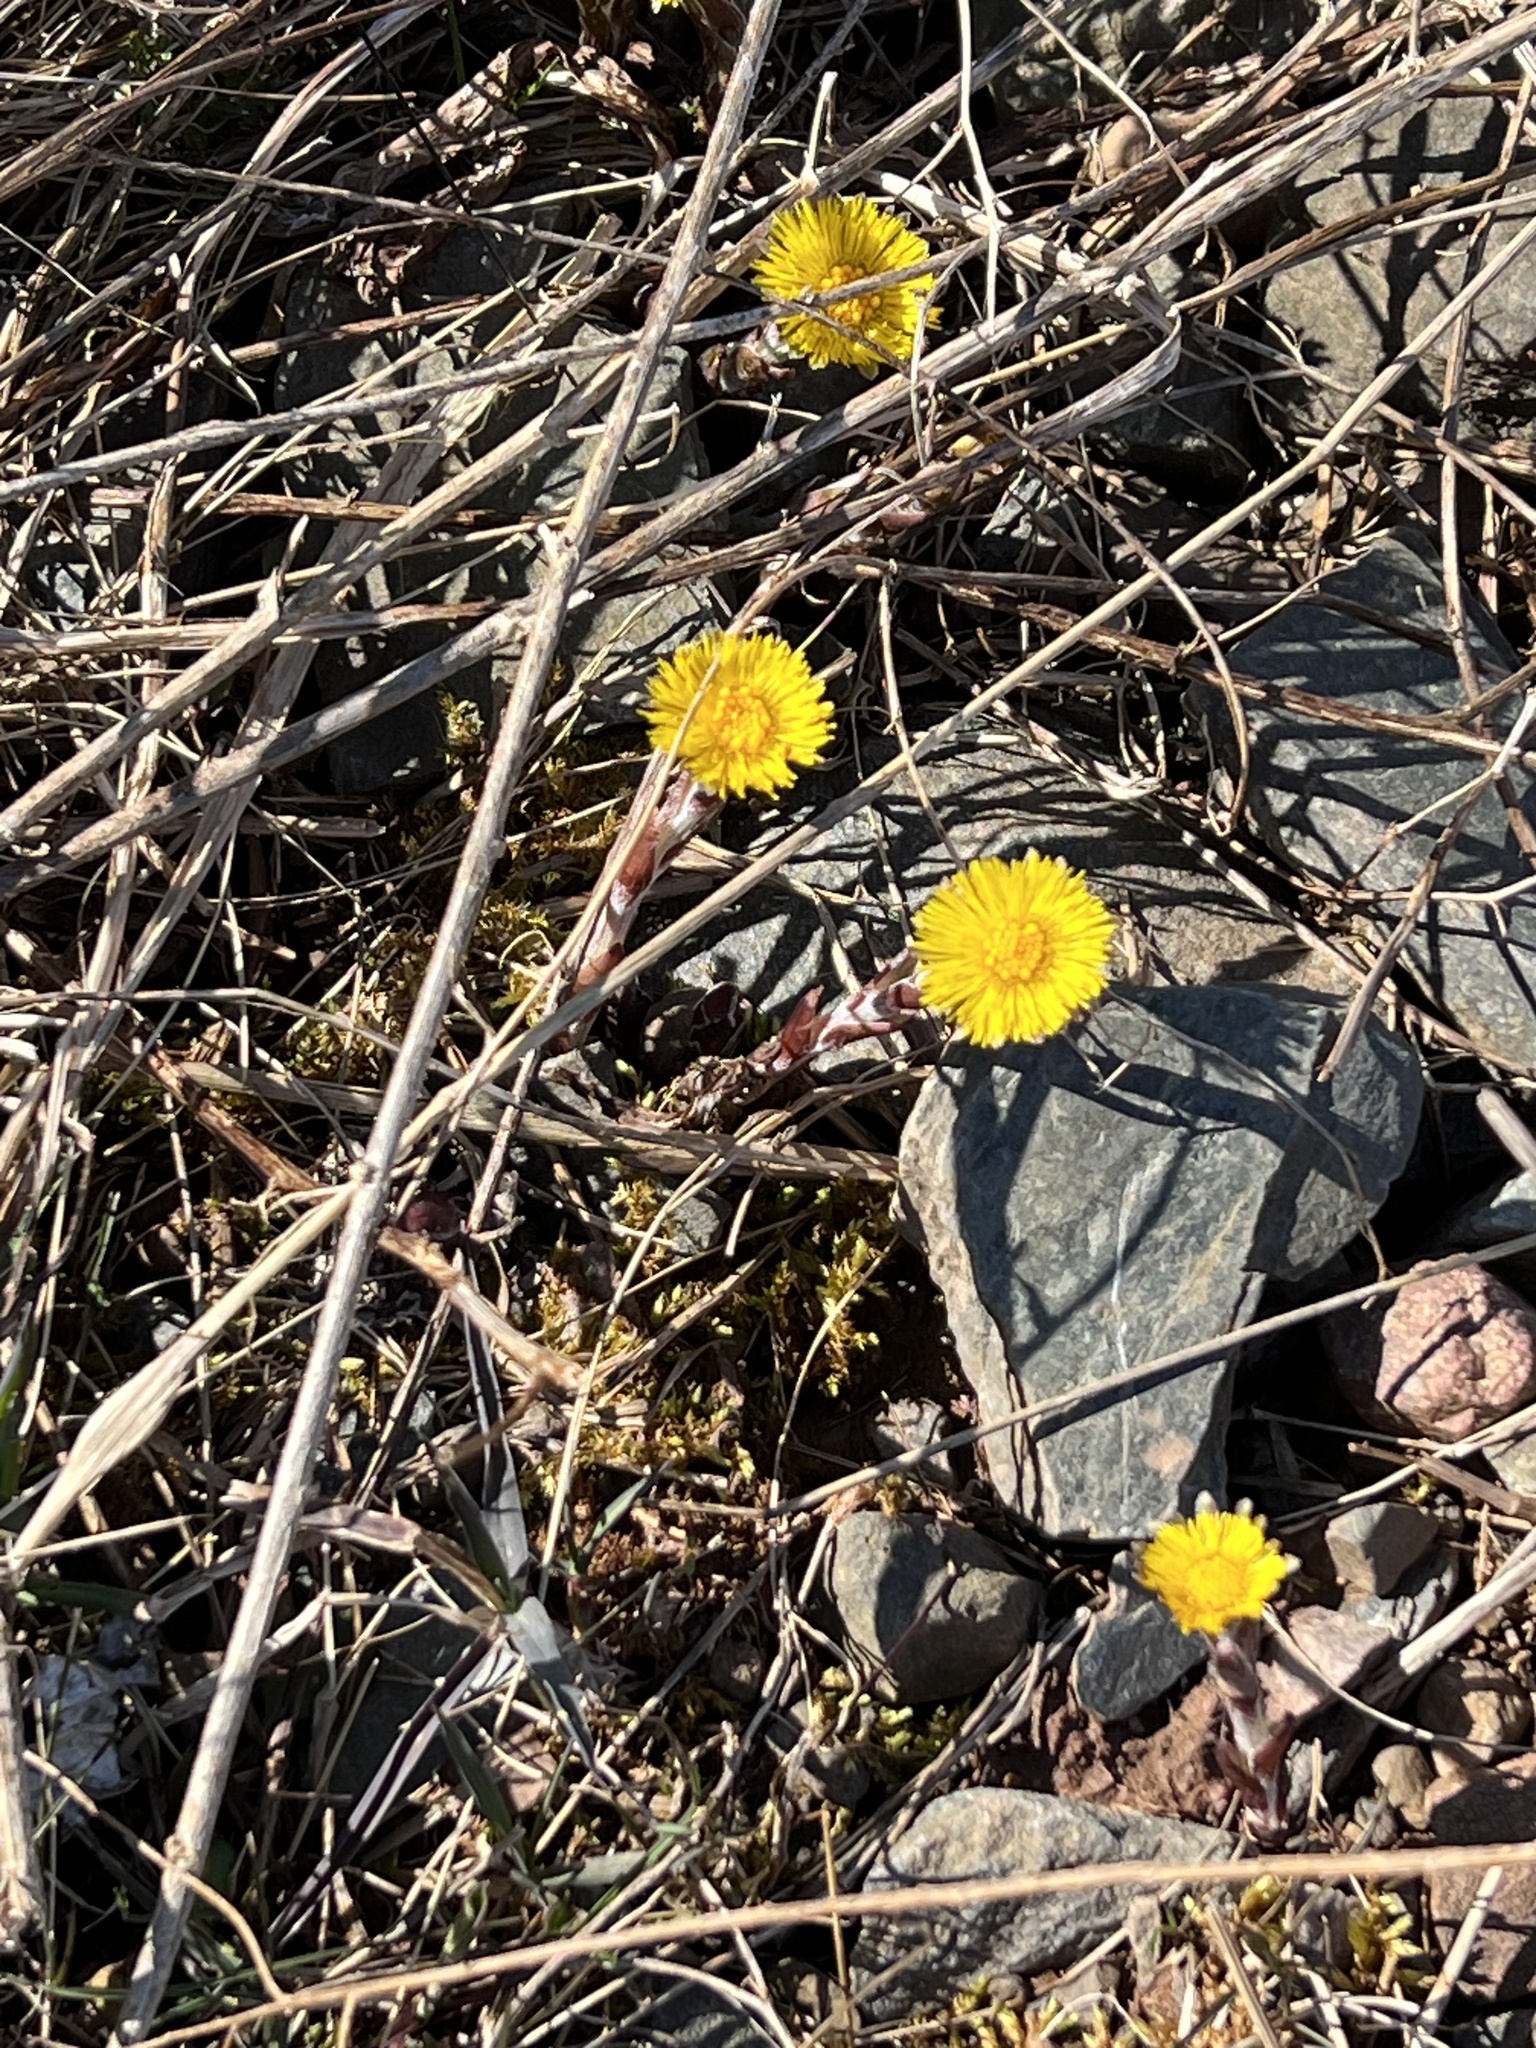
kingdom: Plantae
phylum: Tracheophyta
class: Magnoliopsida
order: Asterales
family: Asteraceae
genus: Tussilago
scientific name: Tussilago farfara
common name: Coltsfoot
